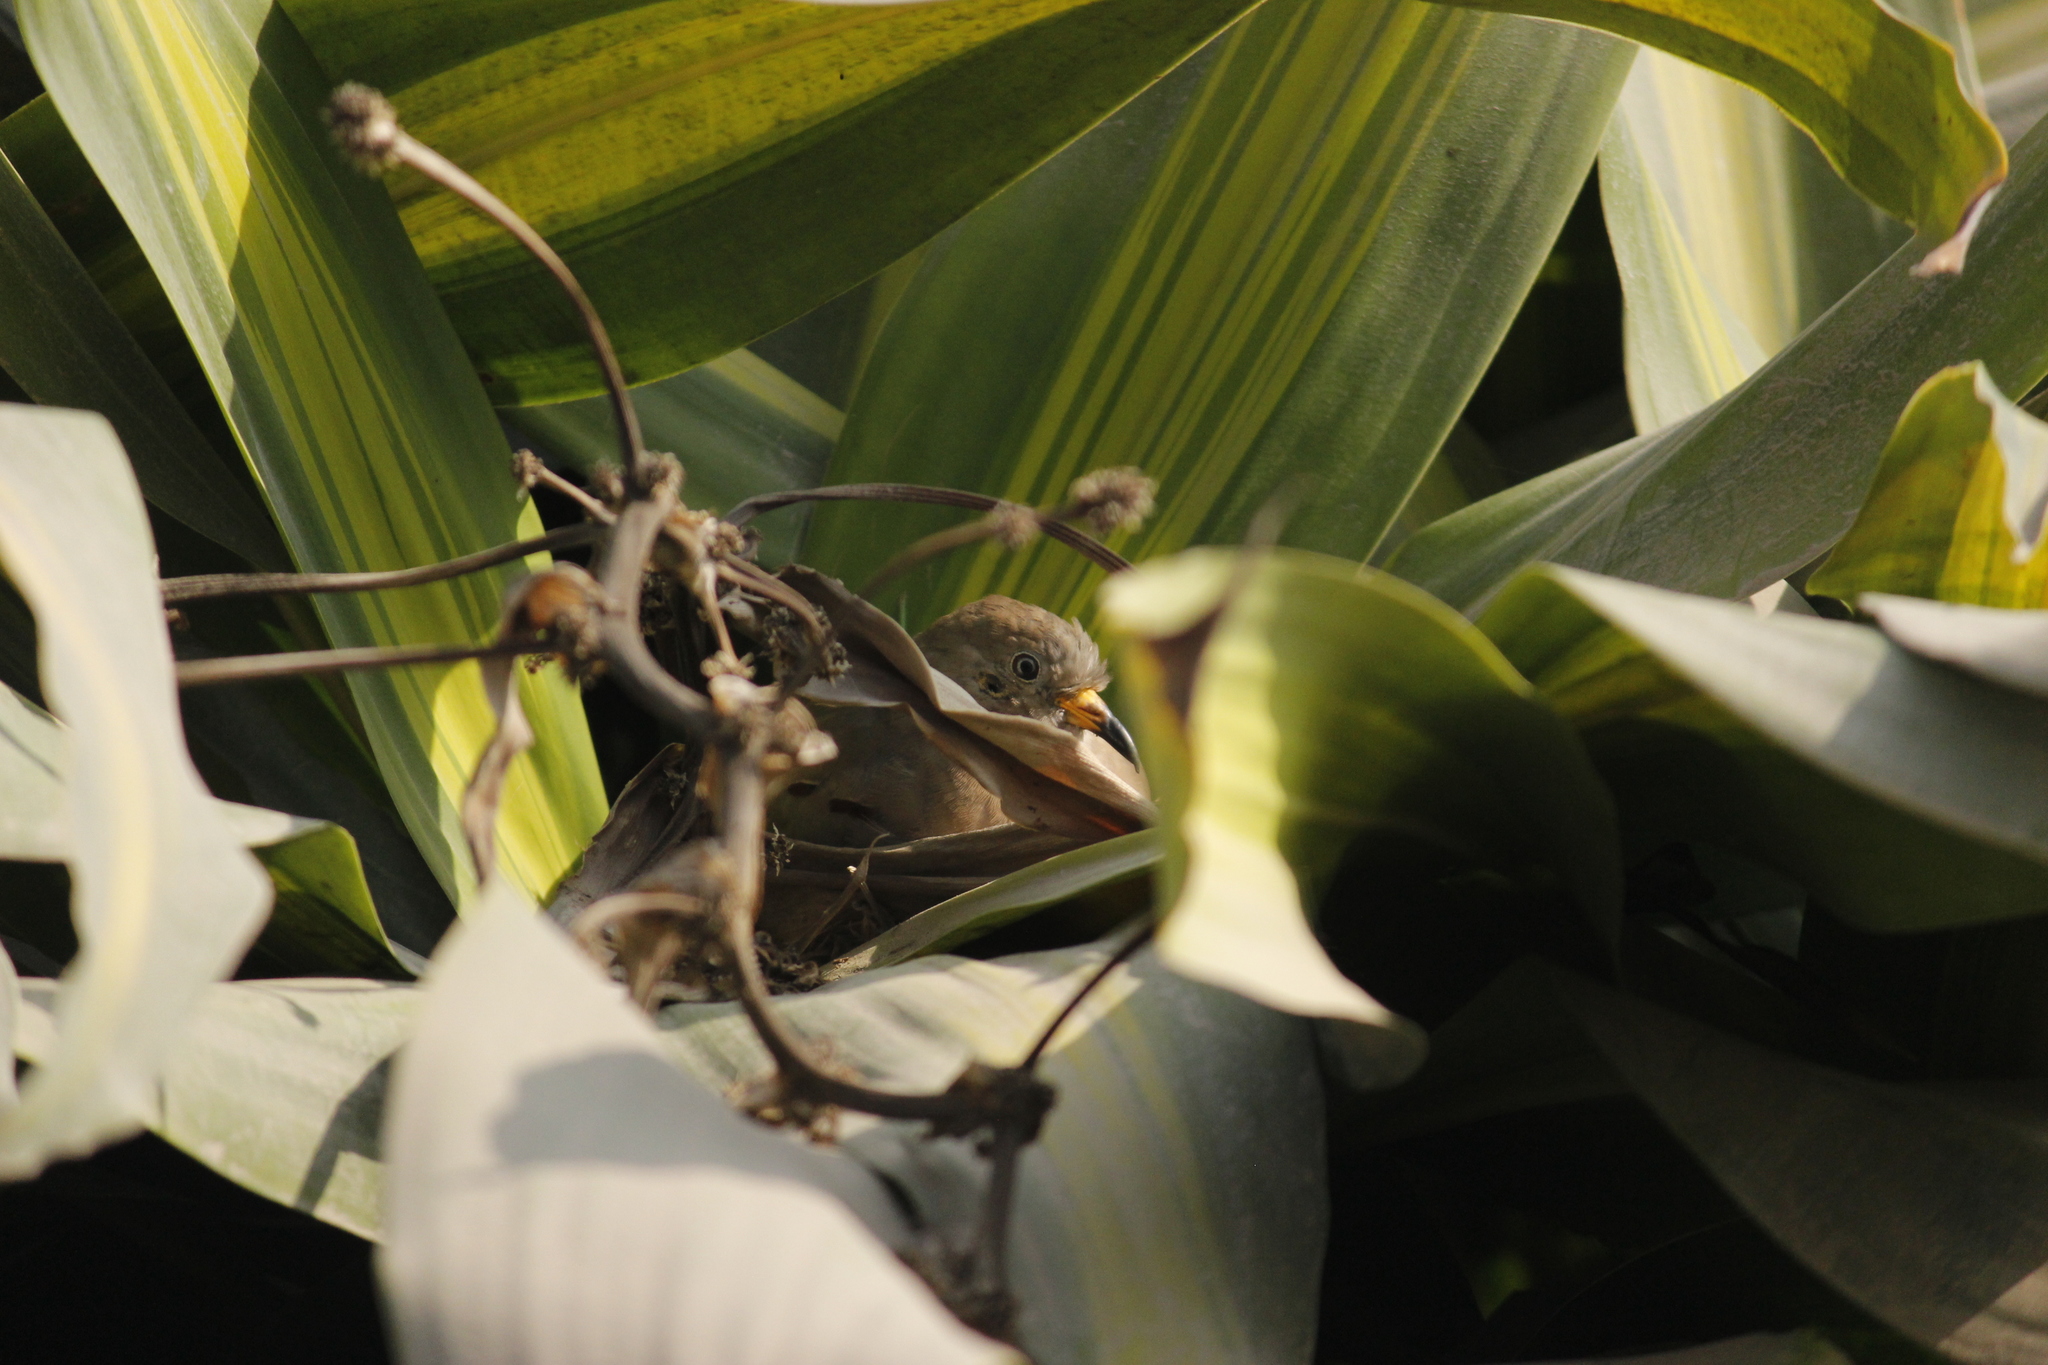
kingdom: Animalia
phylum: Chordata
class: Aves
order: Columbiformes
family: Columbidae
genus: Columbina
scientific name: Columbina cruziana
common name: Croaking ground dove
